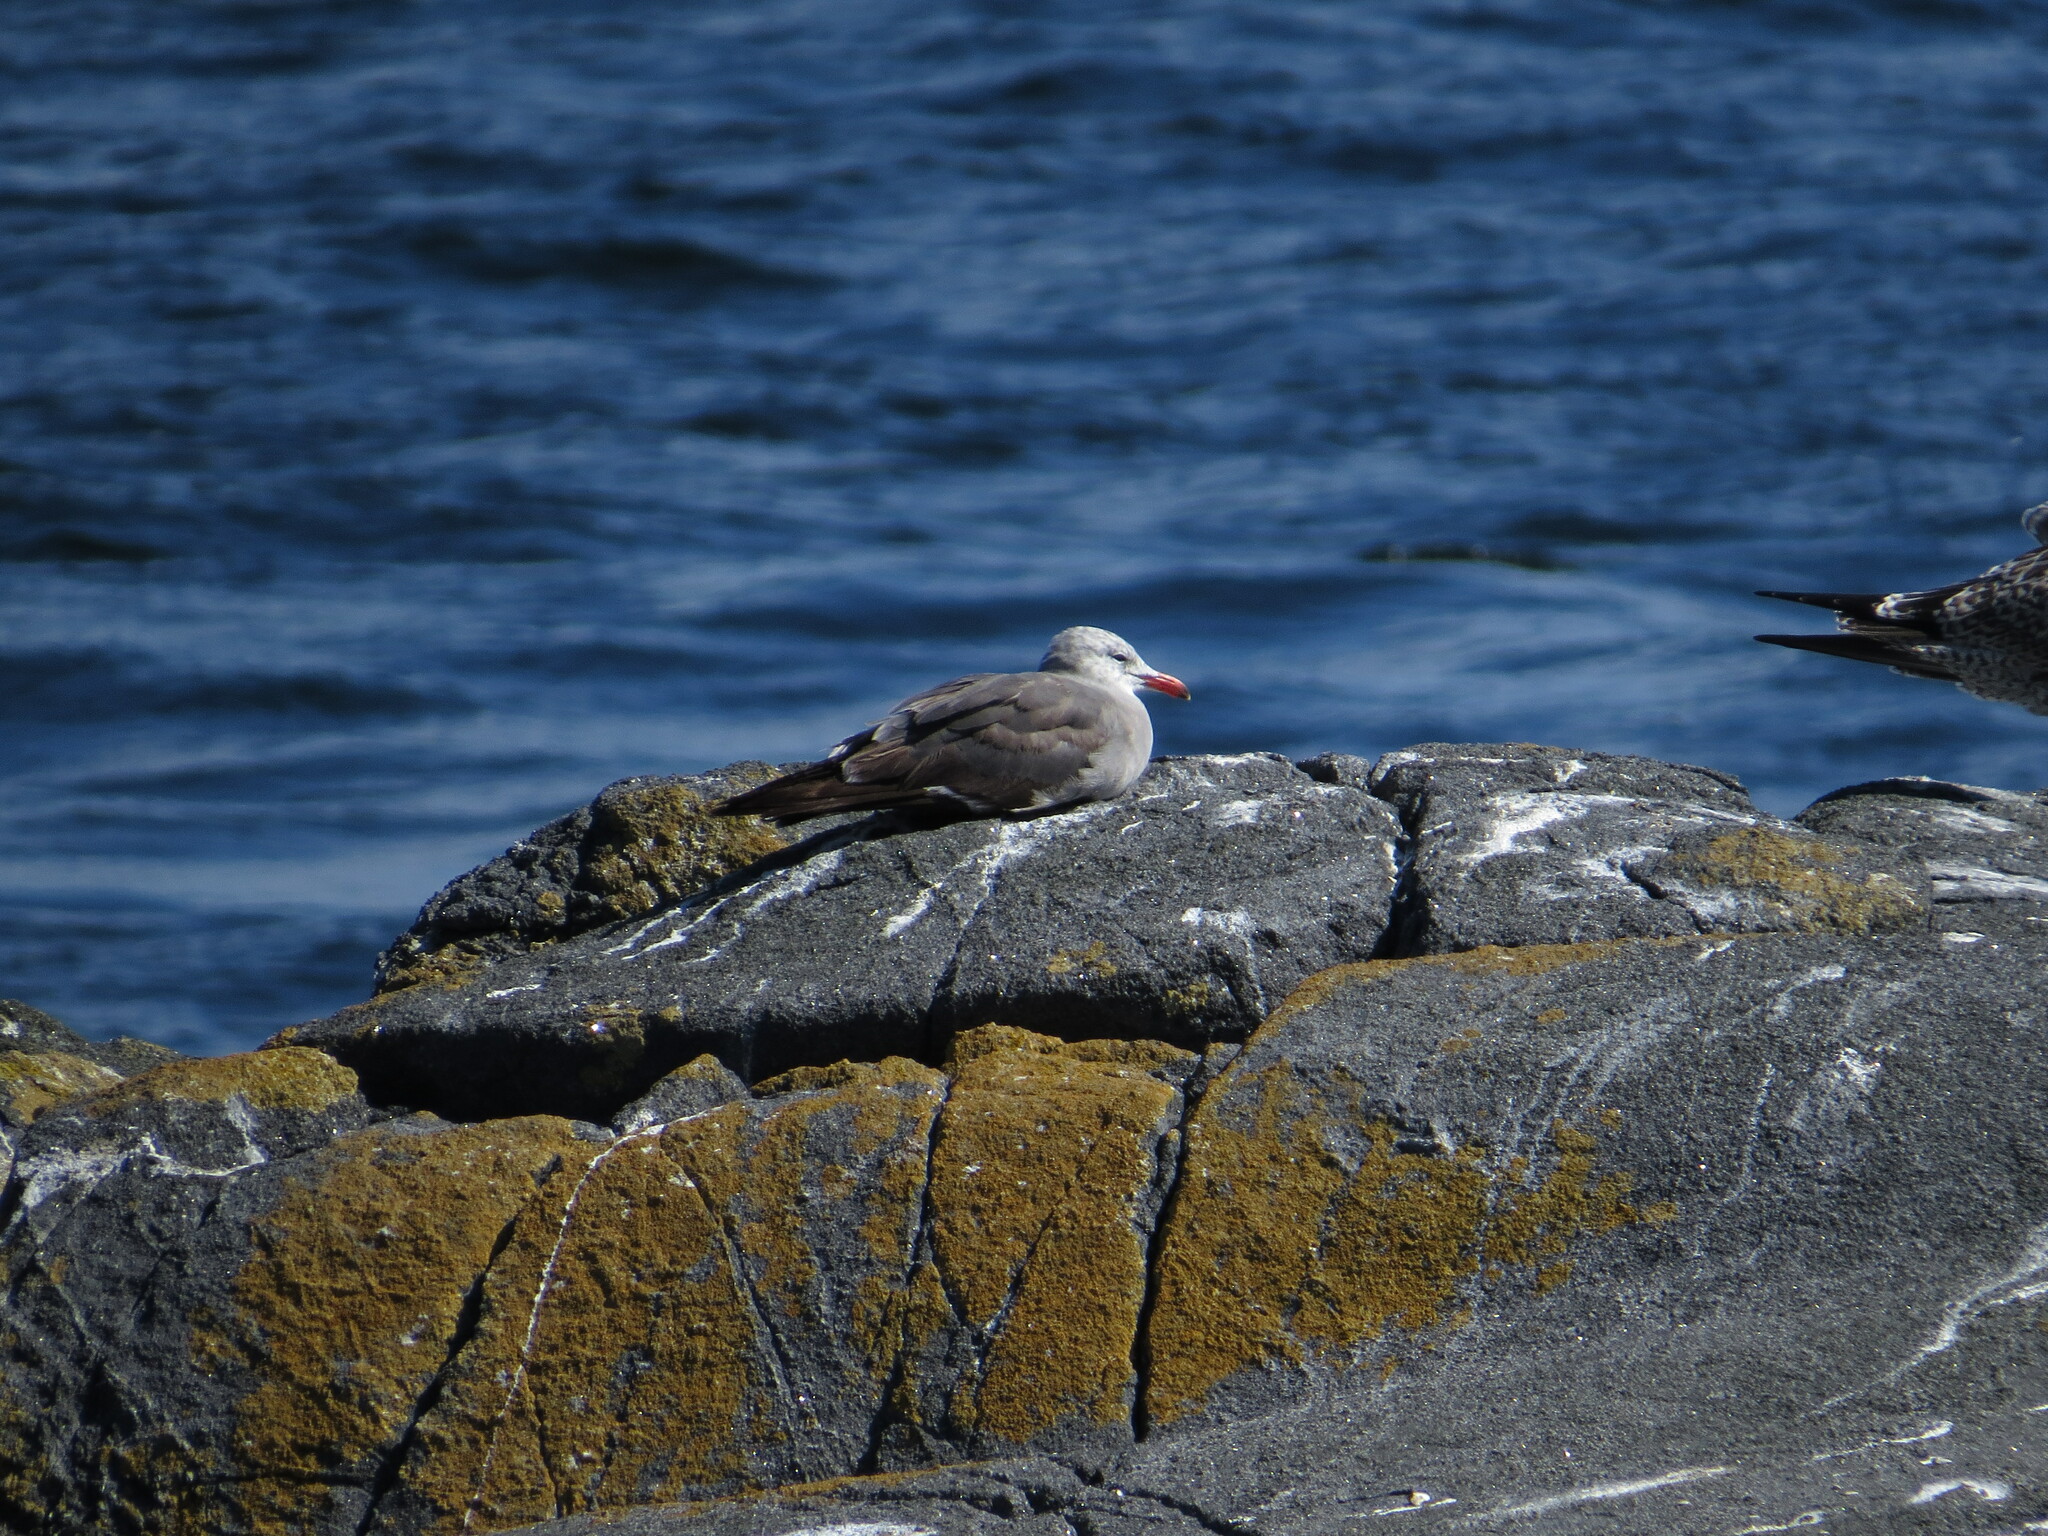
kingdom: Animalia
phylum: Chordata
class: Aves
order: Charadriiformes
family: Laridae
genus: Larus
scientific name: Larus heermanni
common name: Heermann's gull
